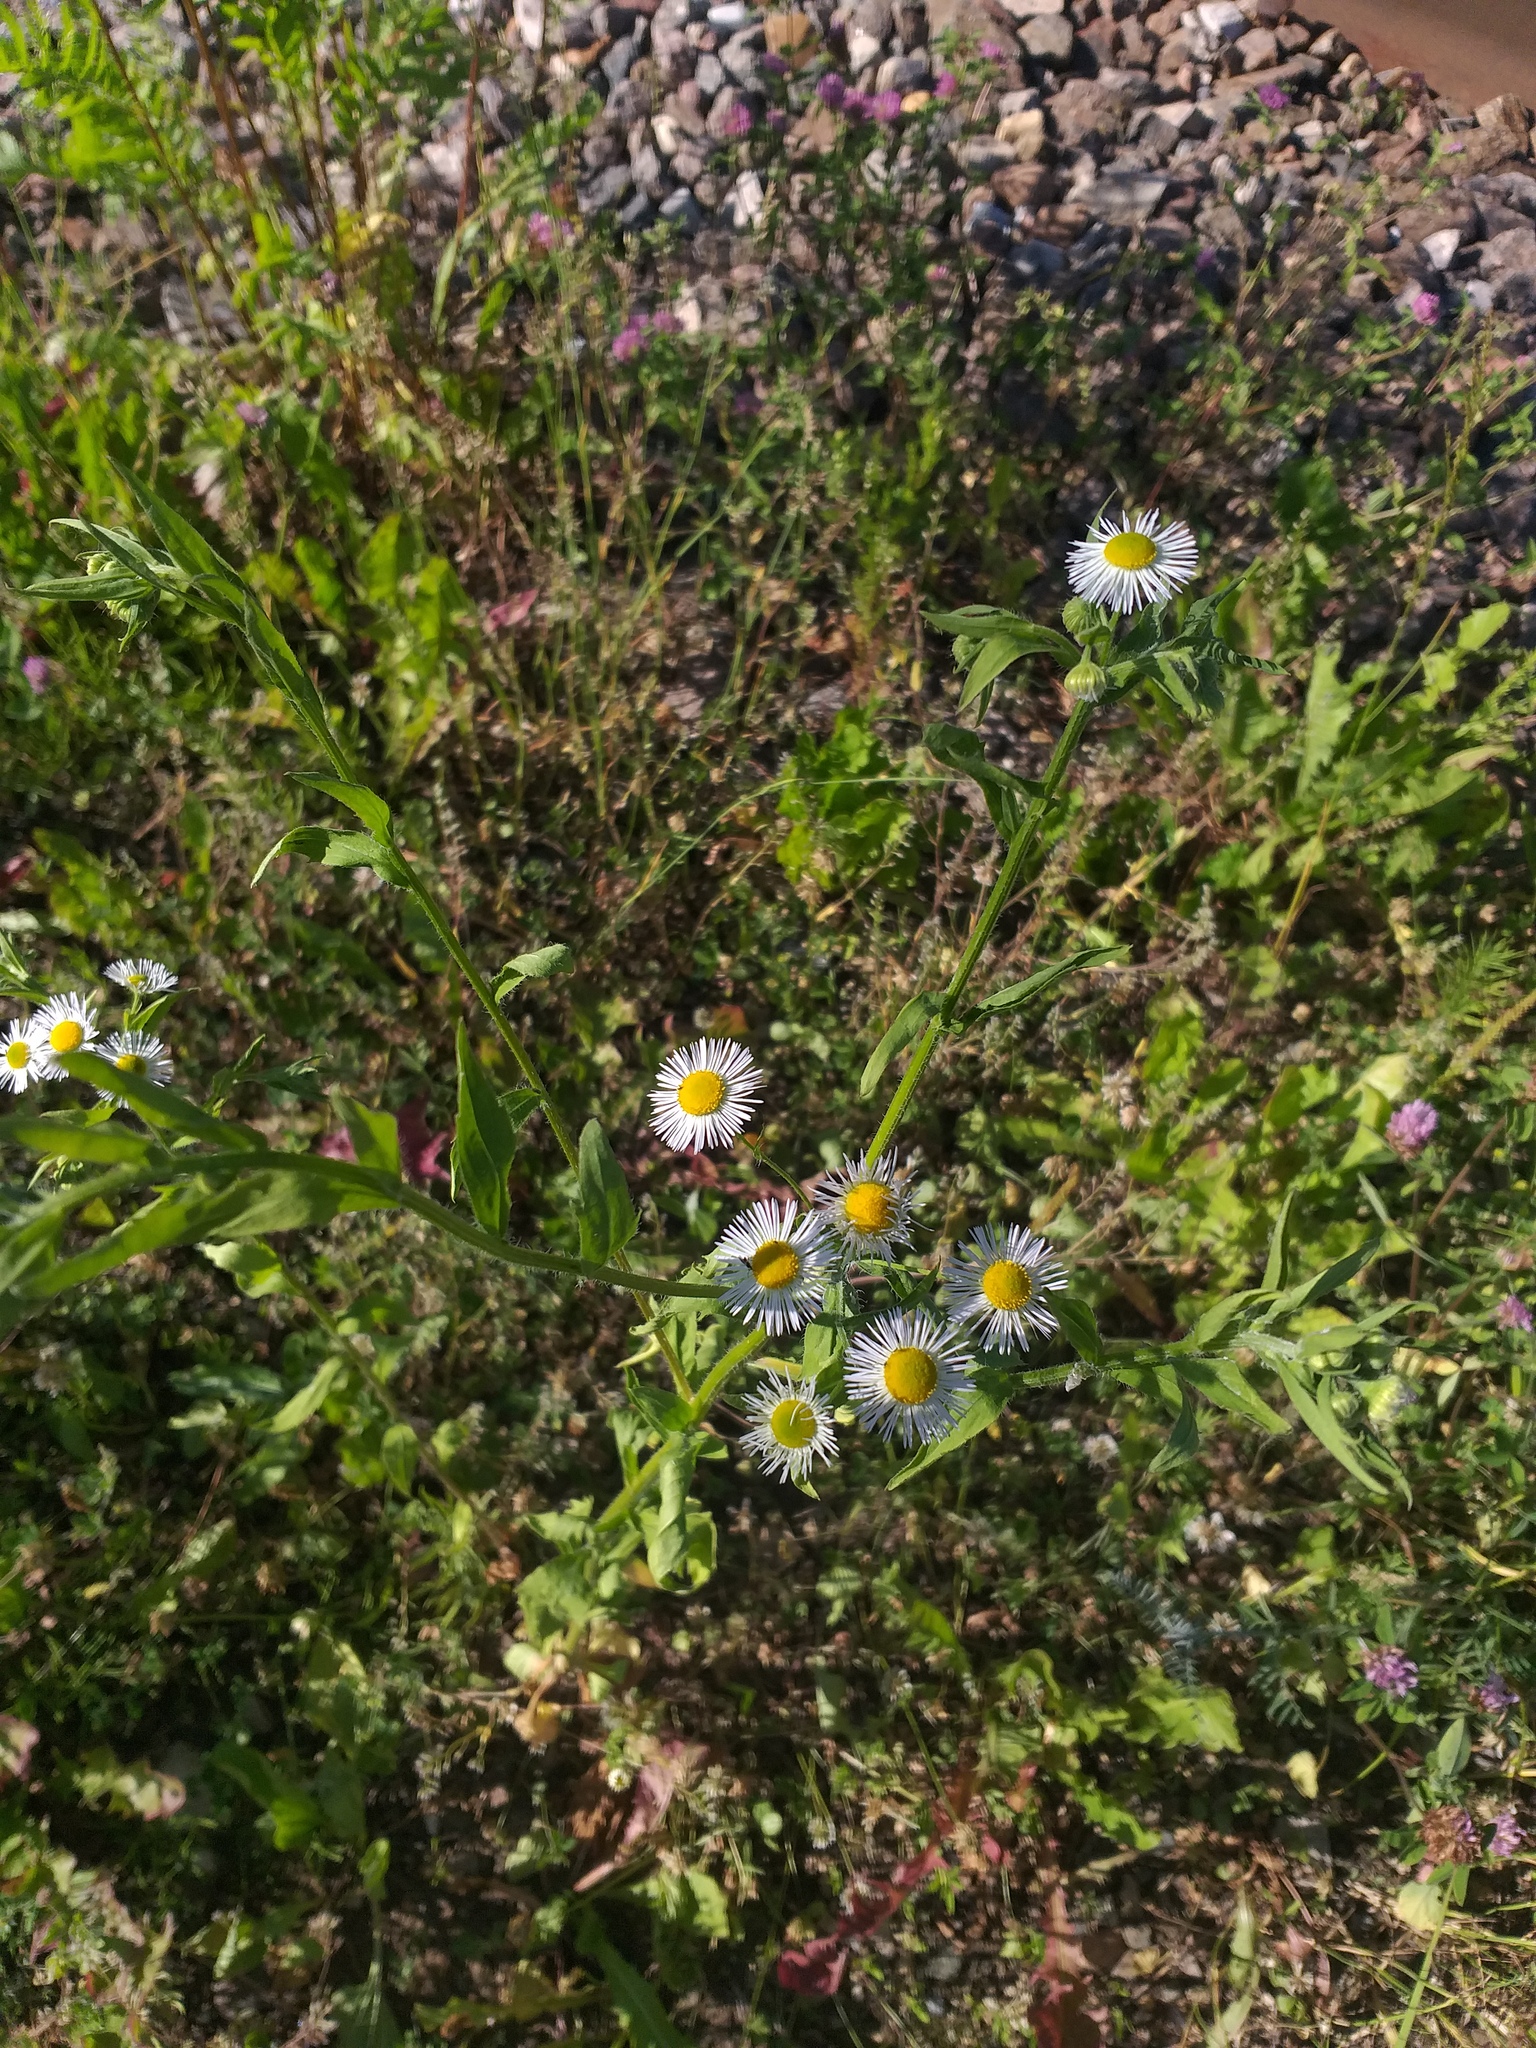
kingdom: Plantae
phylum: Tracheophyta
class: Magnoliopsida
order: Asterales
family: Asteraceae
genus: Erigeron
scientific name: Erigeron annuus
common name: Tall fleabane
